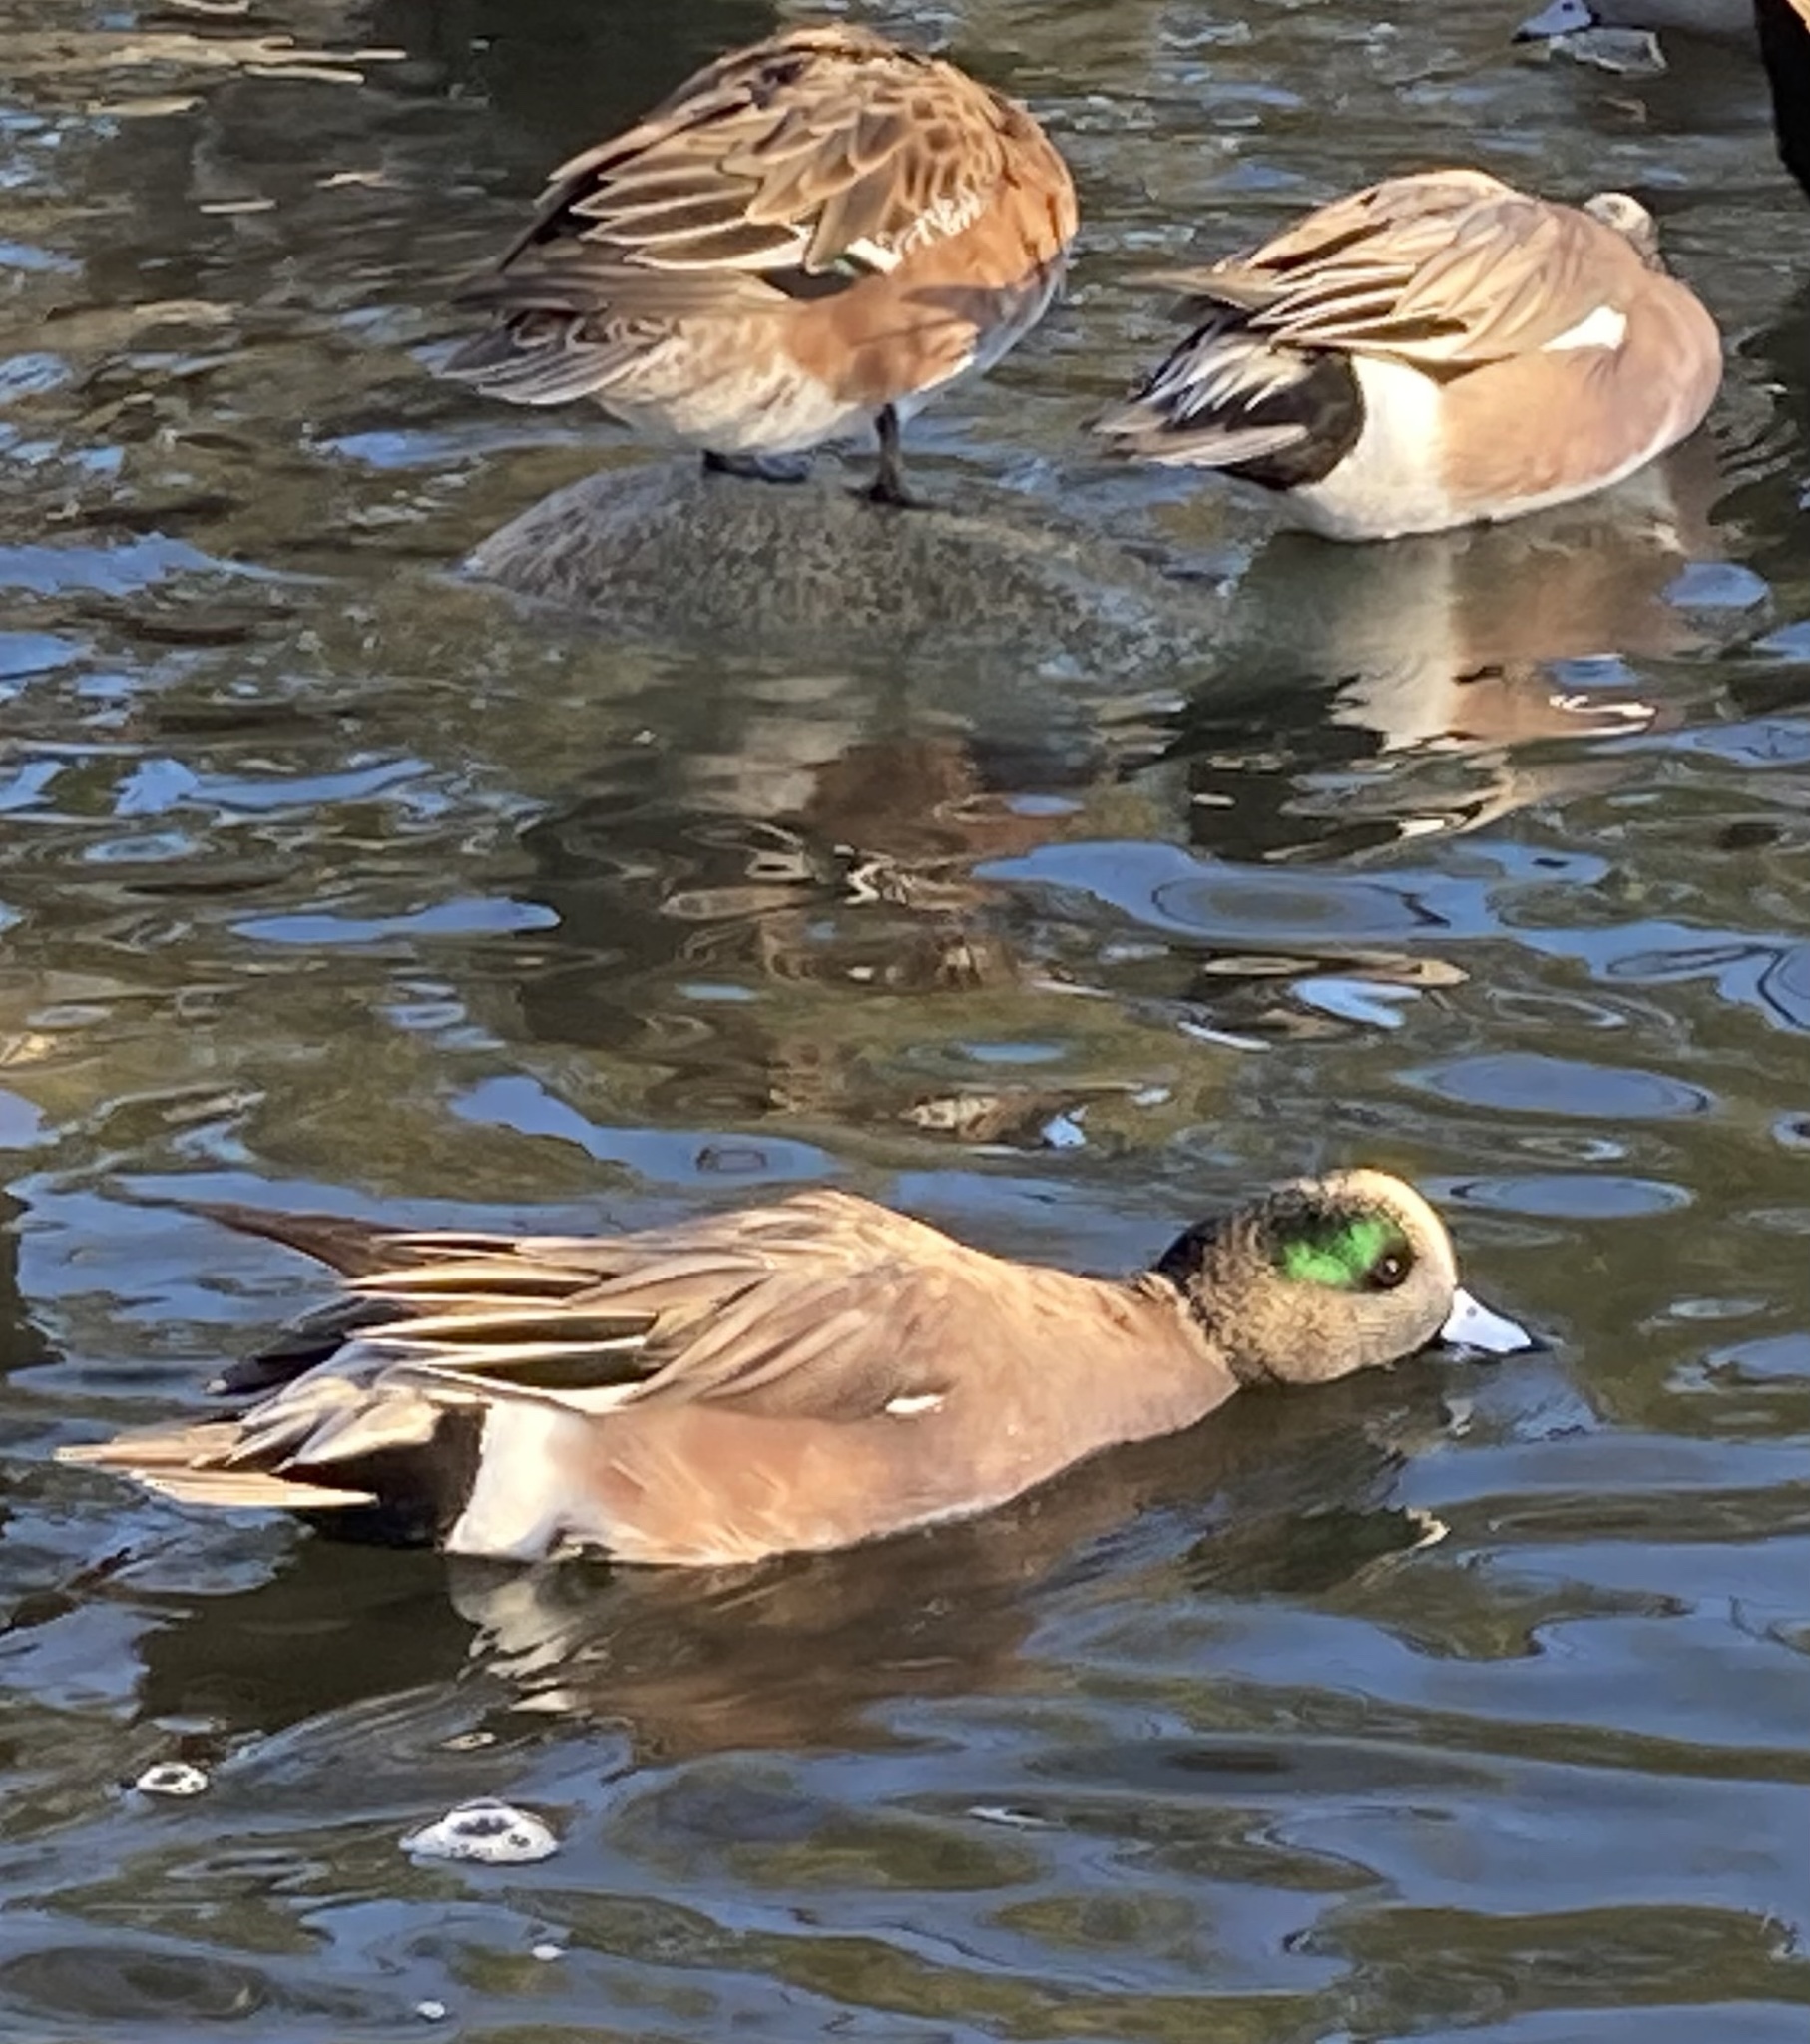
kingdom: Animalia
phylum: Chordata
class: Aves
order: Anseriformes
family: Anatidae
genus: Mareca
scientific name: Mareca americana
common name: American wigeon
